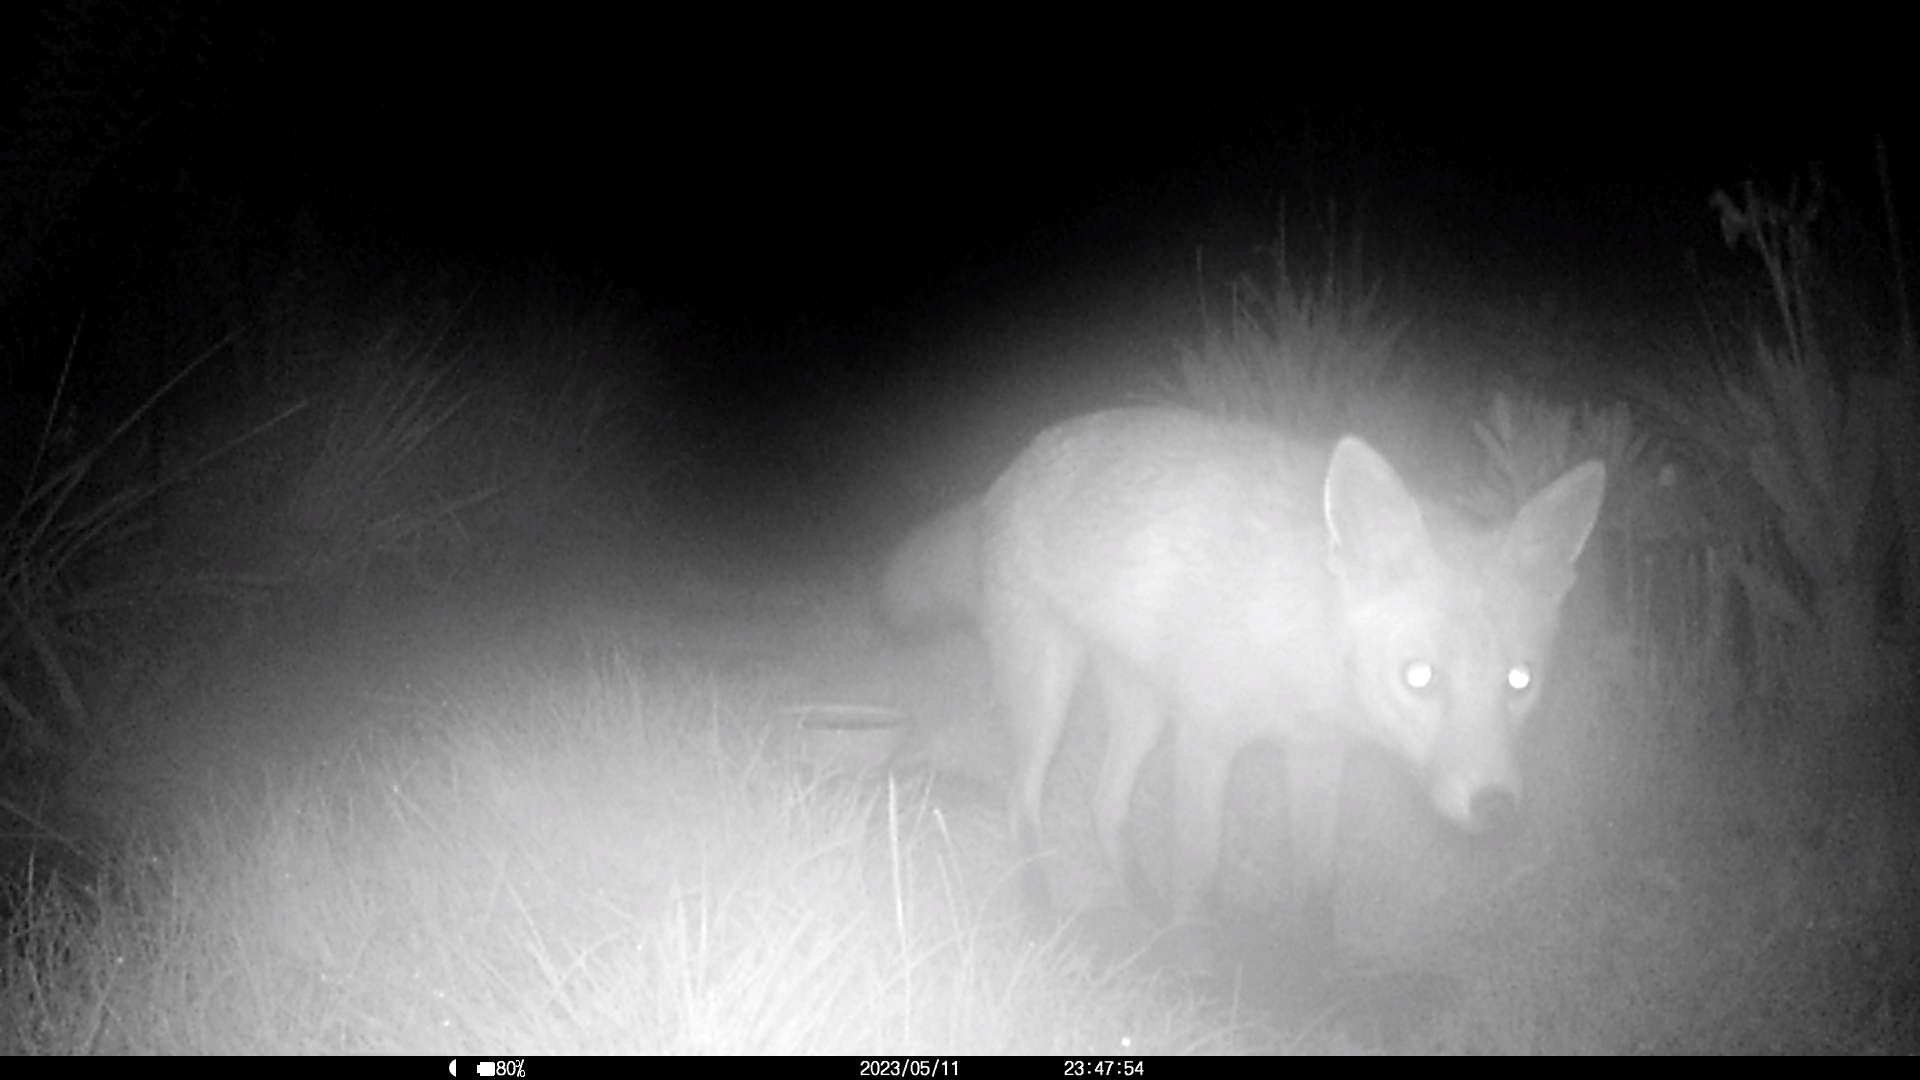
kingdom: Animalia
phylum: Chordata
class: Mammalia
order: Carnivora
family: Canidae
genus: Vulpes
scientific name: Vulpes vulpes
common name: Red fox
